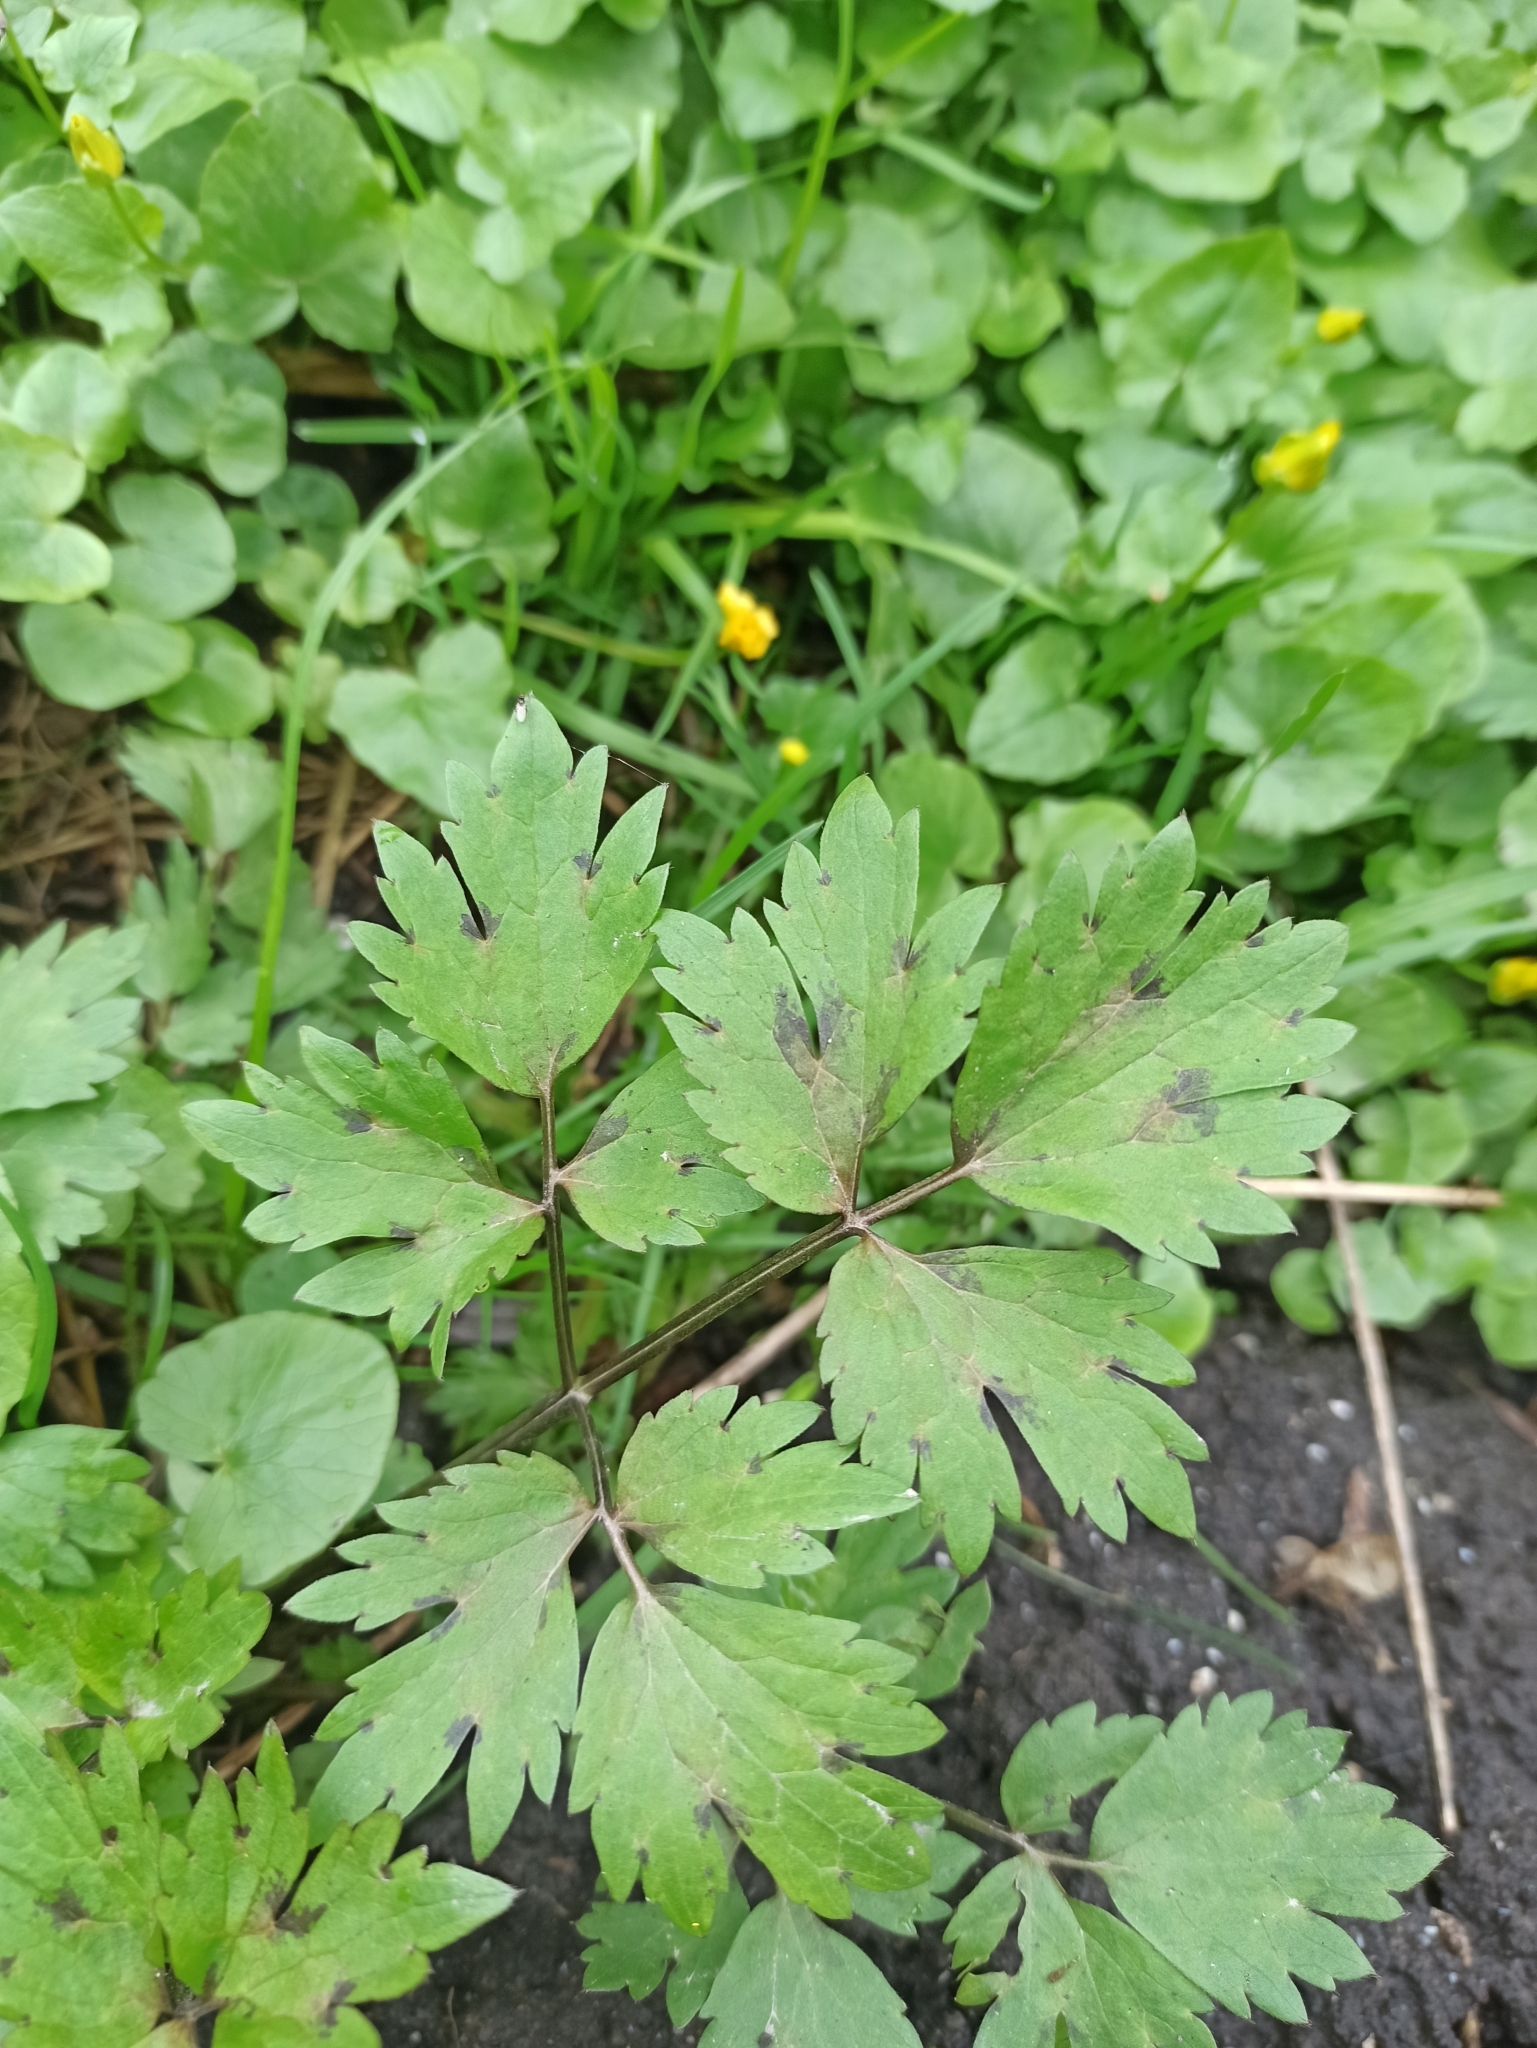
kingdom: Plantae
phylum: Tracheophyta
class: Magnoliopsida
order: Ranunculales
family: Ranunculaceae
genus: Ranunculus
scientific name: Ranunculus repens
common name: Creeping buttercup
